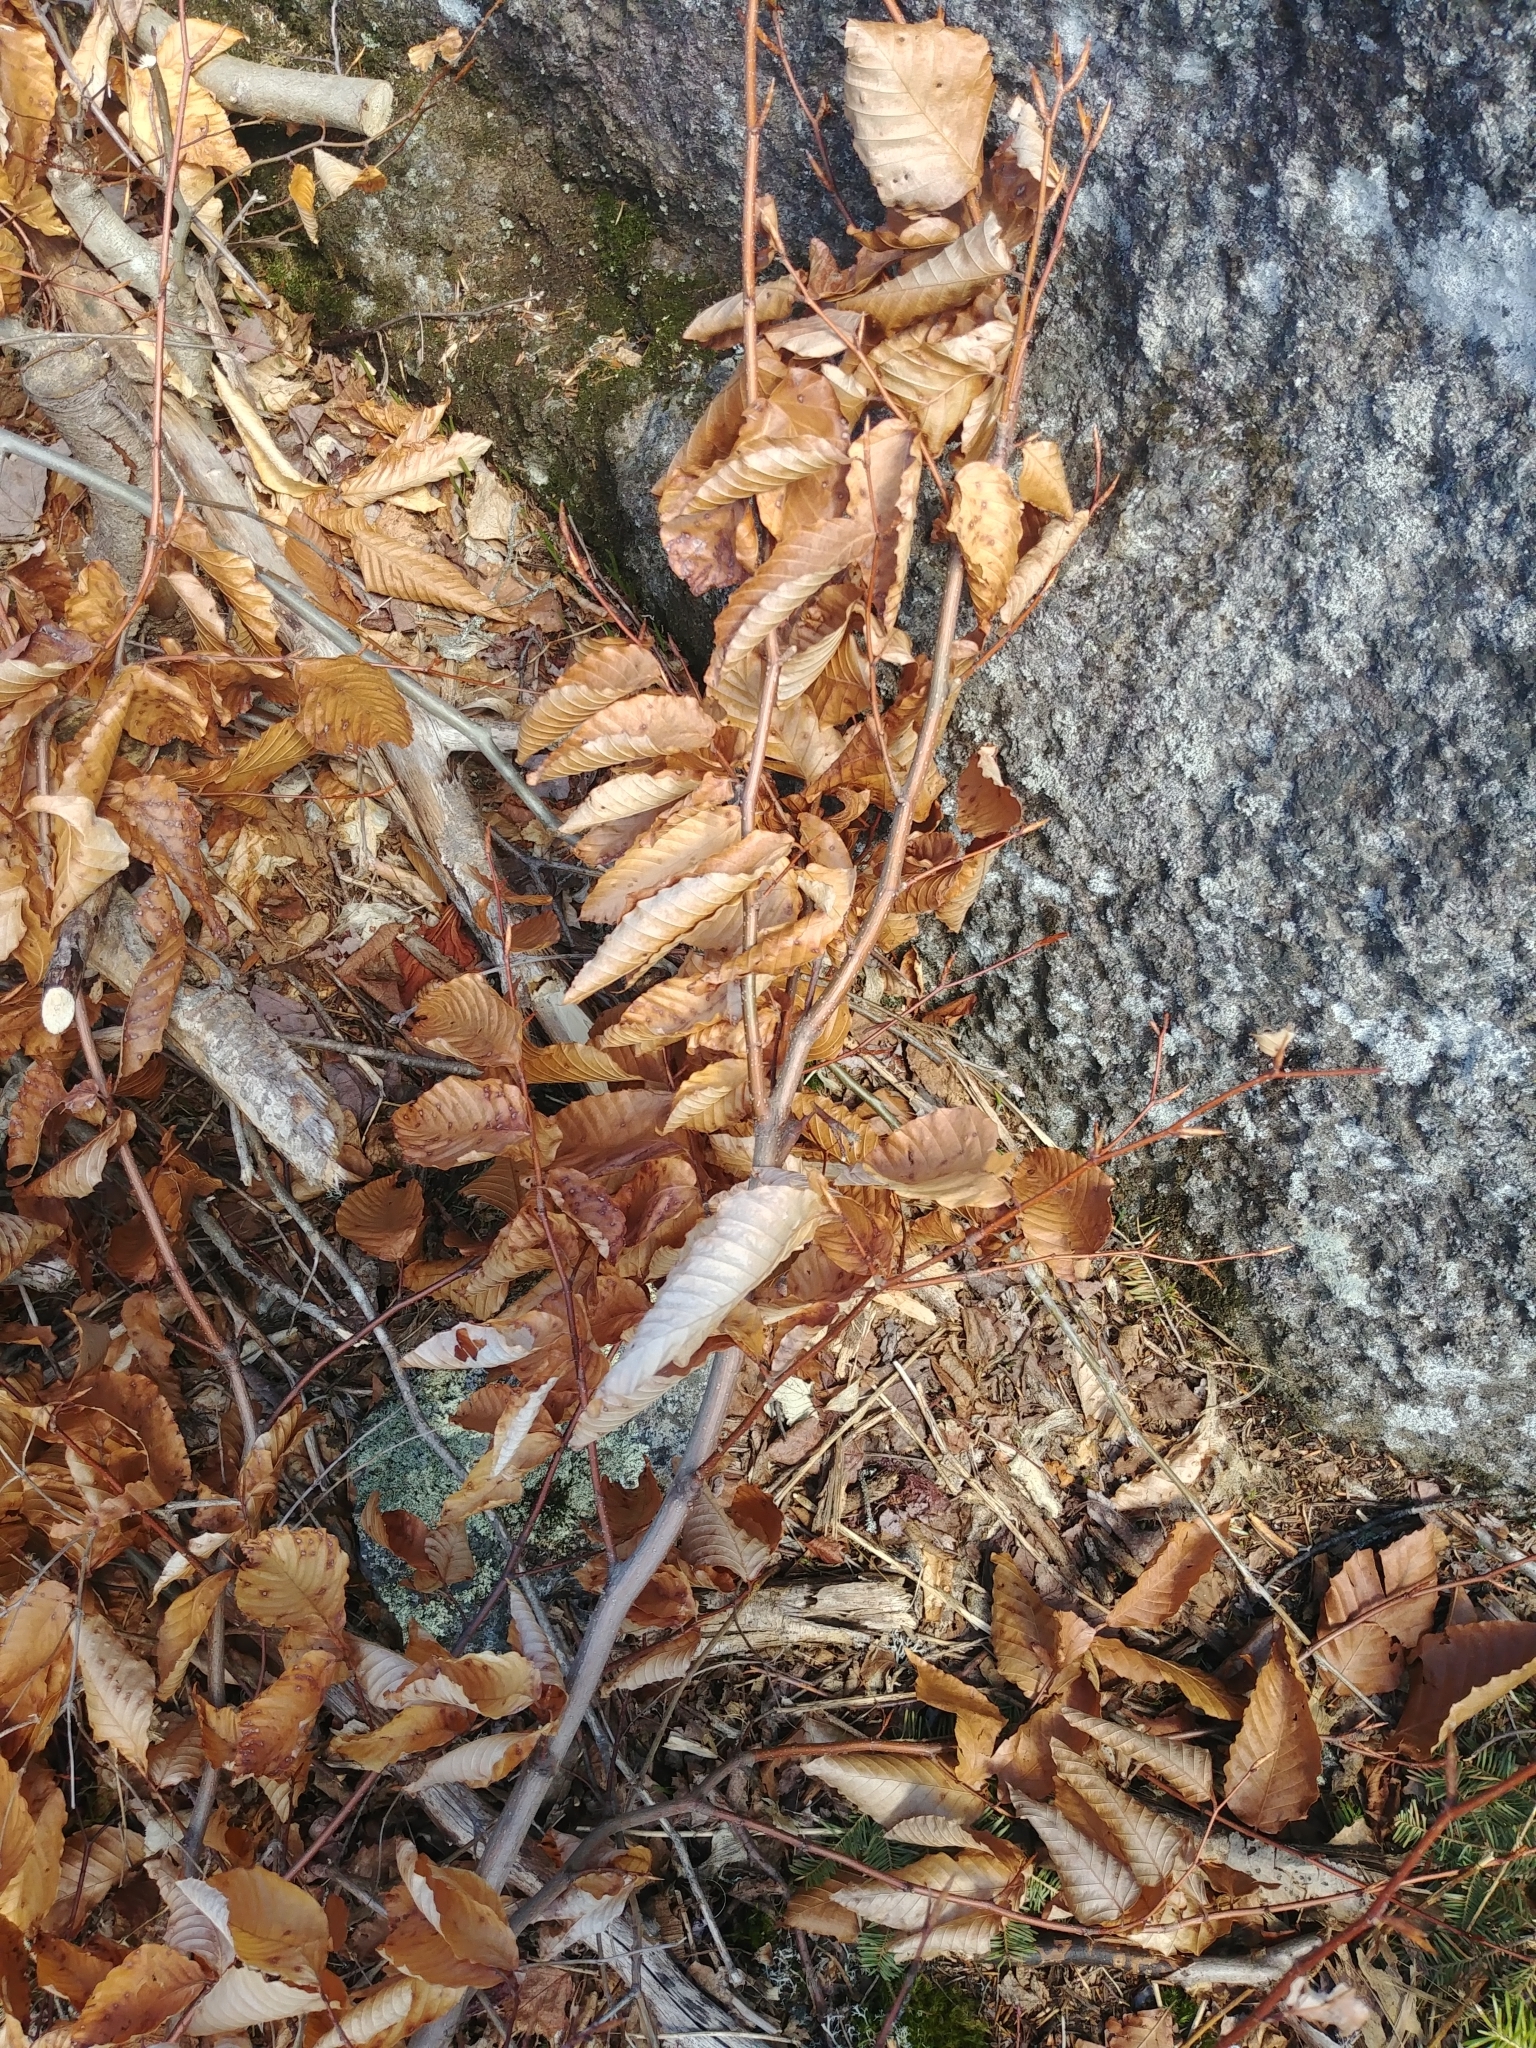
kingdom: Plantae
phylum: Tracheophyta
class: Magnoliopsida
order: Fagales
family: Fagaceae
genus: Fagus
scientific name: Fagus grandifolia
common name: American beech
